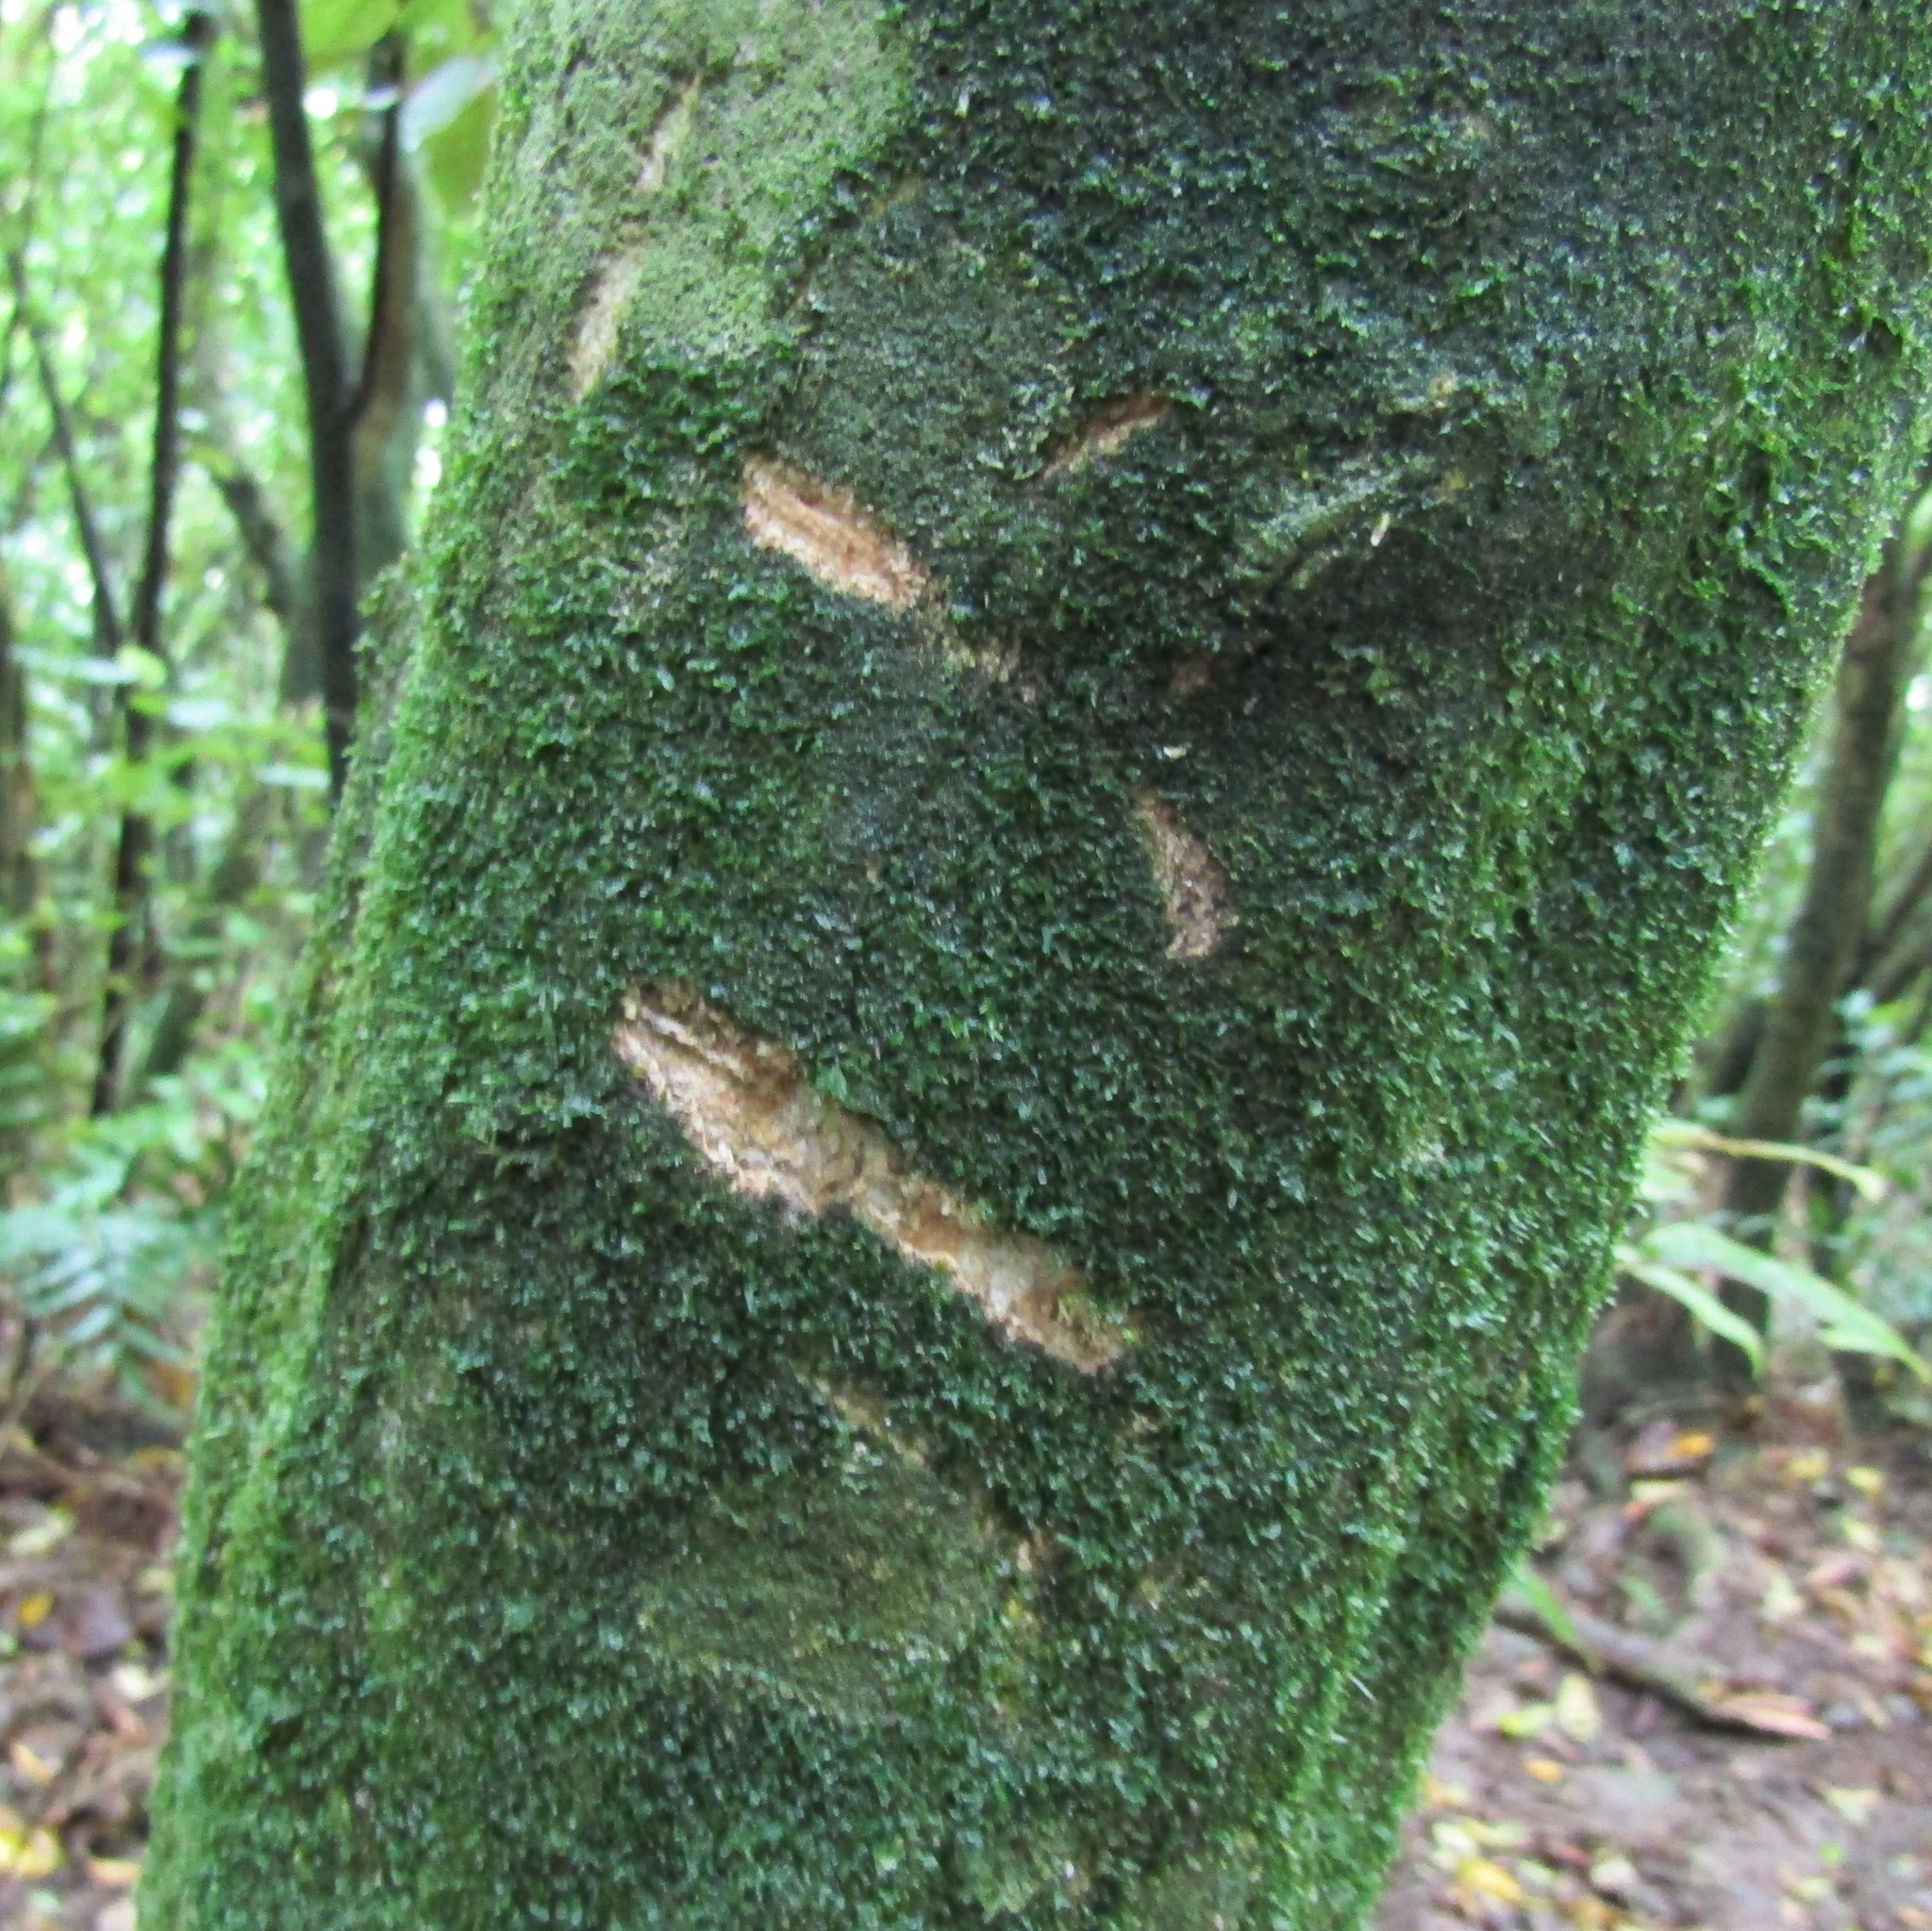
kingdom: Animalia
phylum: Chordata
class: Mammalia
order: Diprotodontia
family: Phalangeridae
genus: Trichosurus
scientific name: Trichosurus vulpecula
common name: Common brushtail
